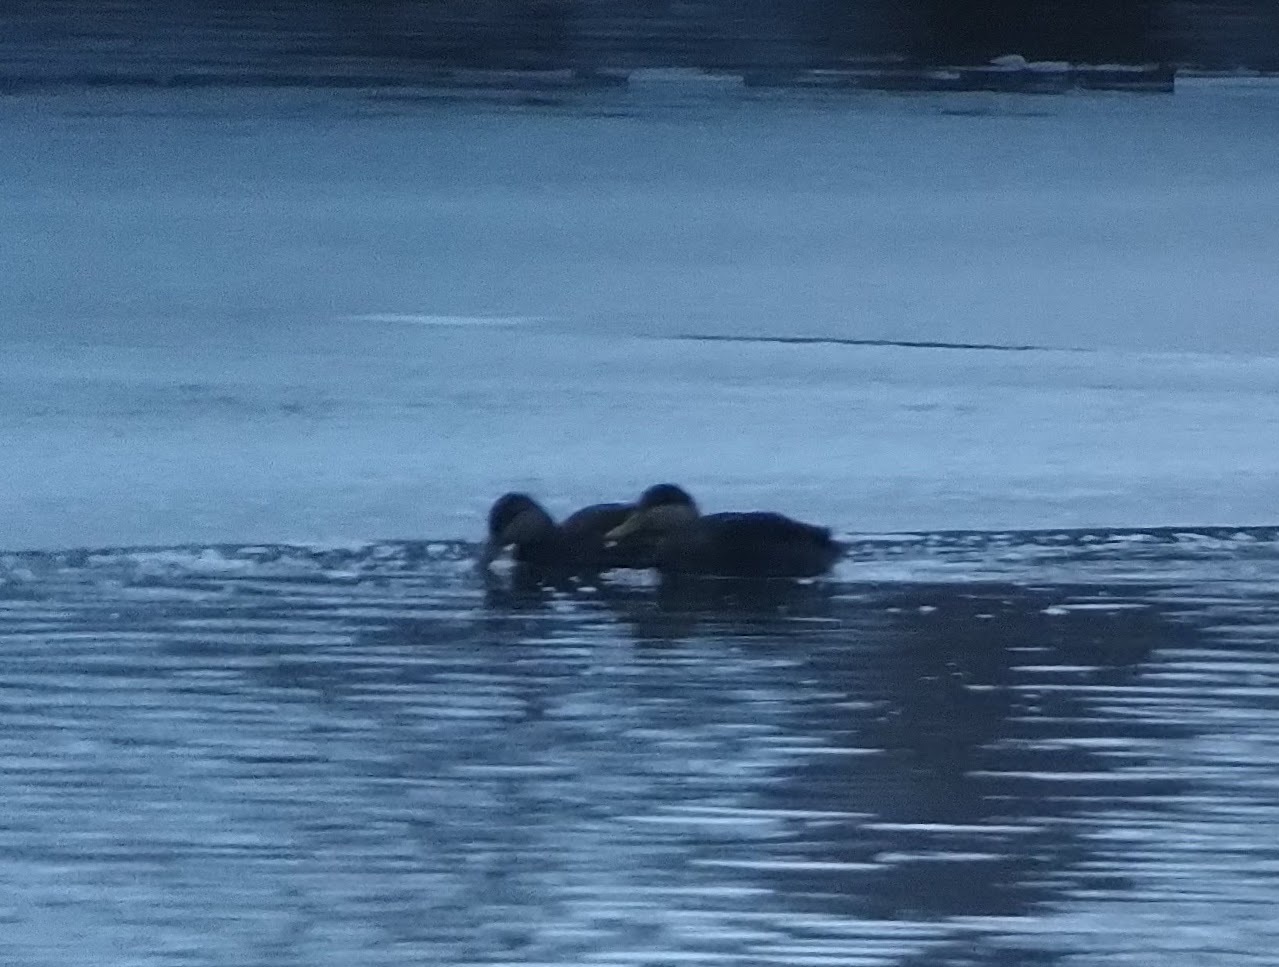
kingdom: Animalia
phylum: Chordata
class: Aves
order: Anseriformes
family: Anatidae
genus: Anas
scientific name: Anas rubripes
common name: American black duck
